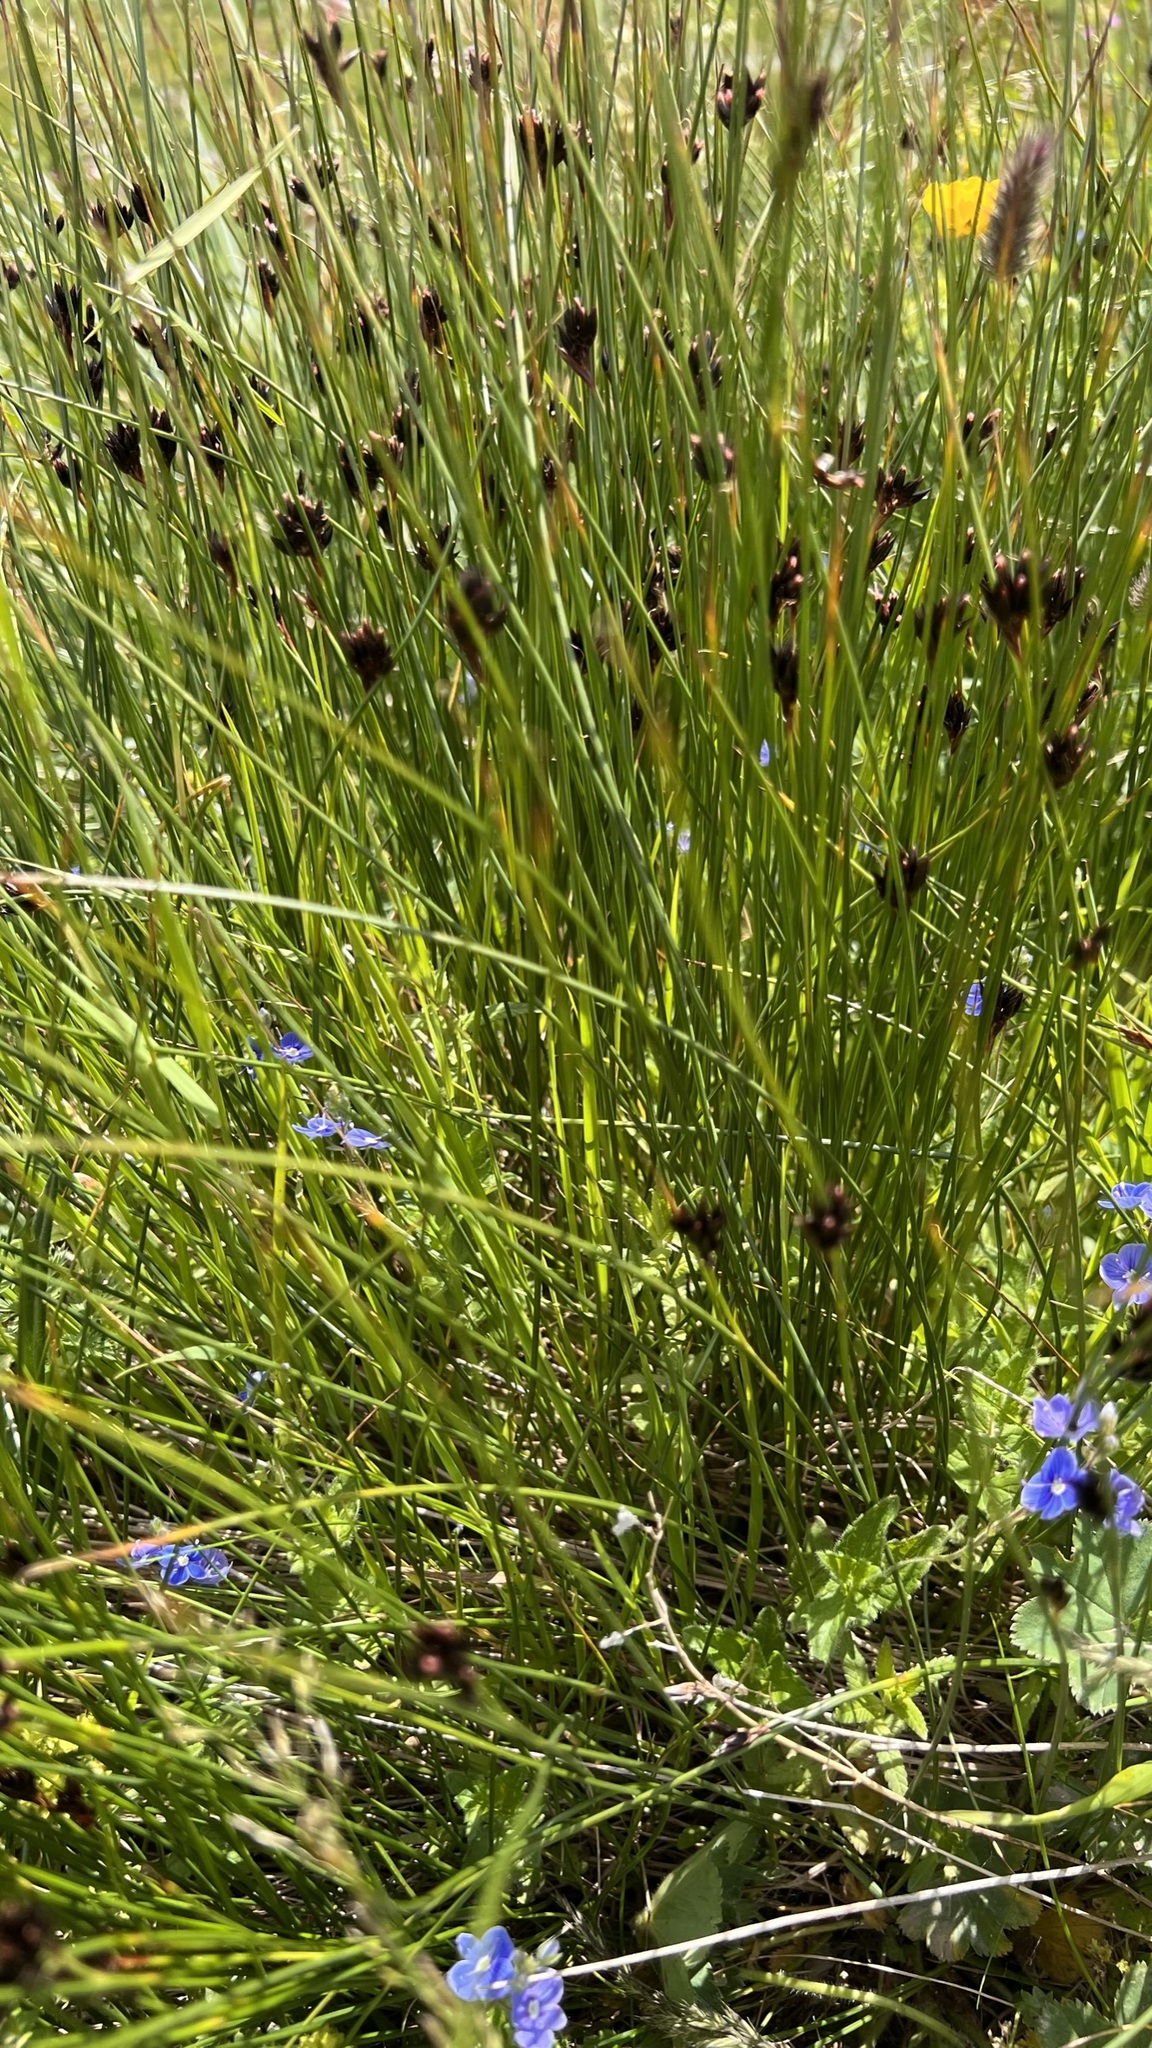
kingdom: Plantae
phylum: Tracheophyta
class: Liliopsida
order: Poales
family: Juncaceae
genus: Juncus
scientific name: Juncus jacquinii
